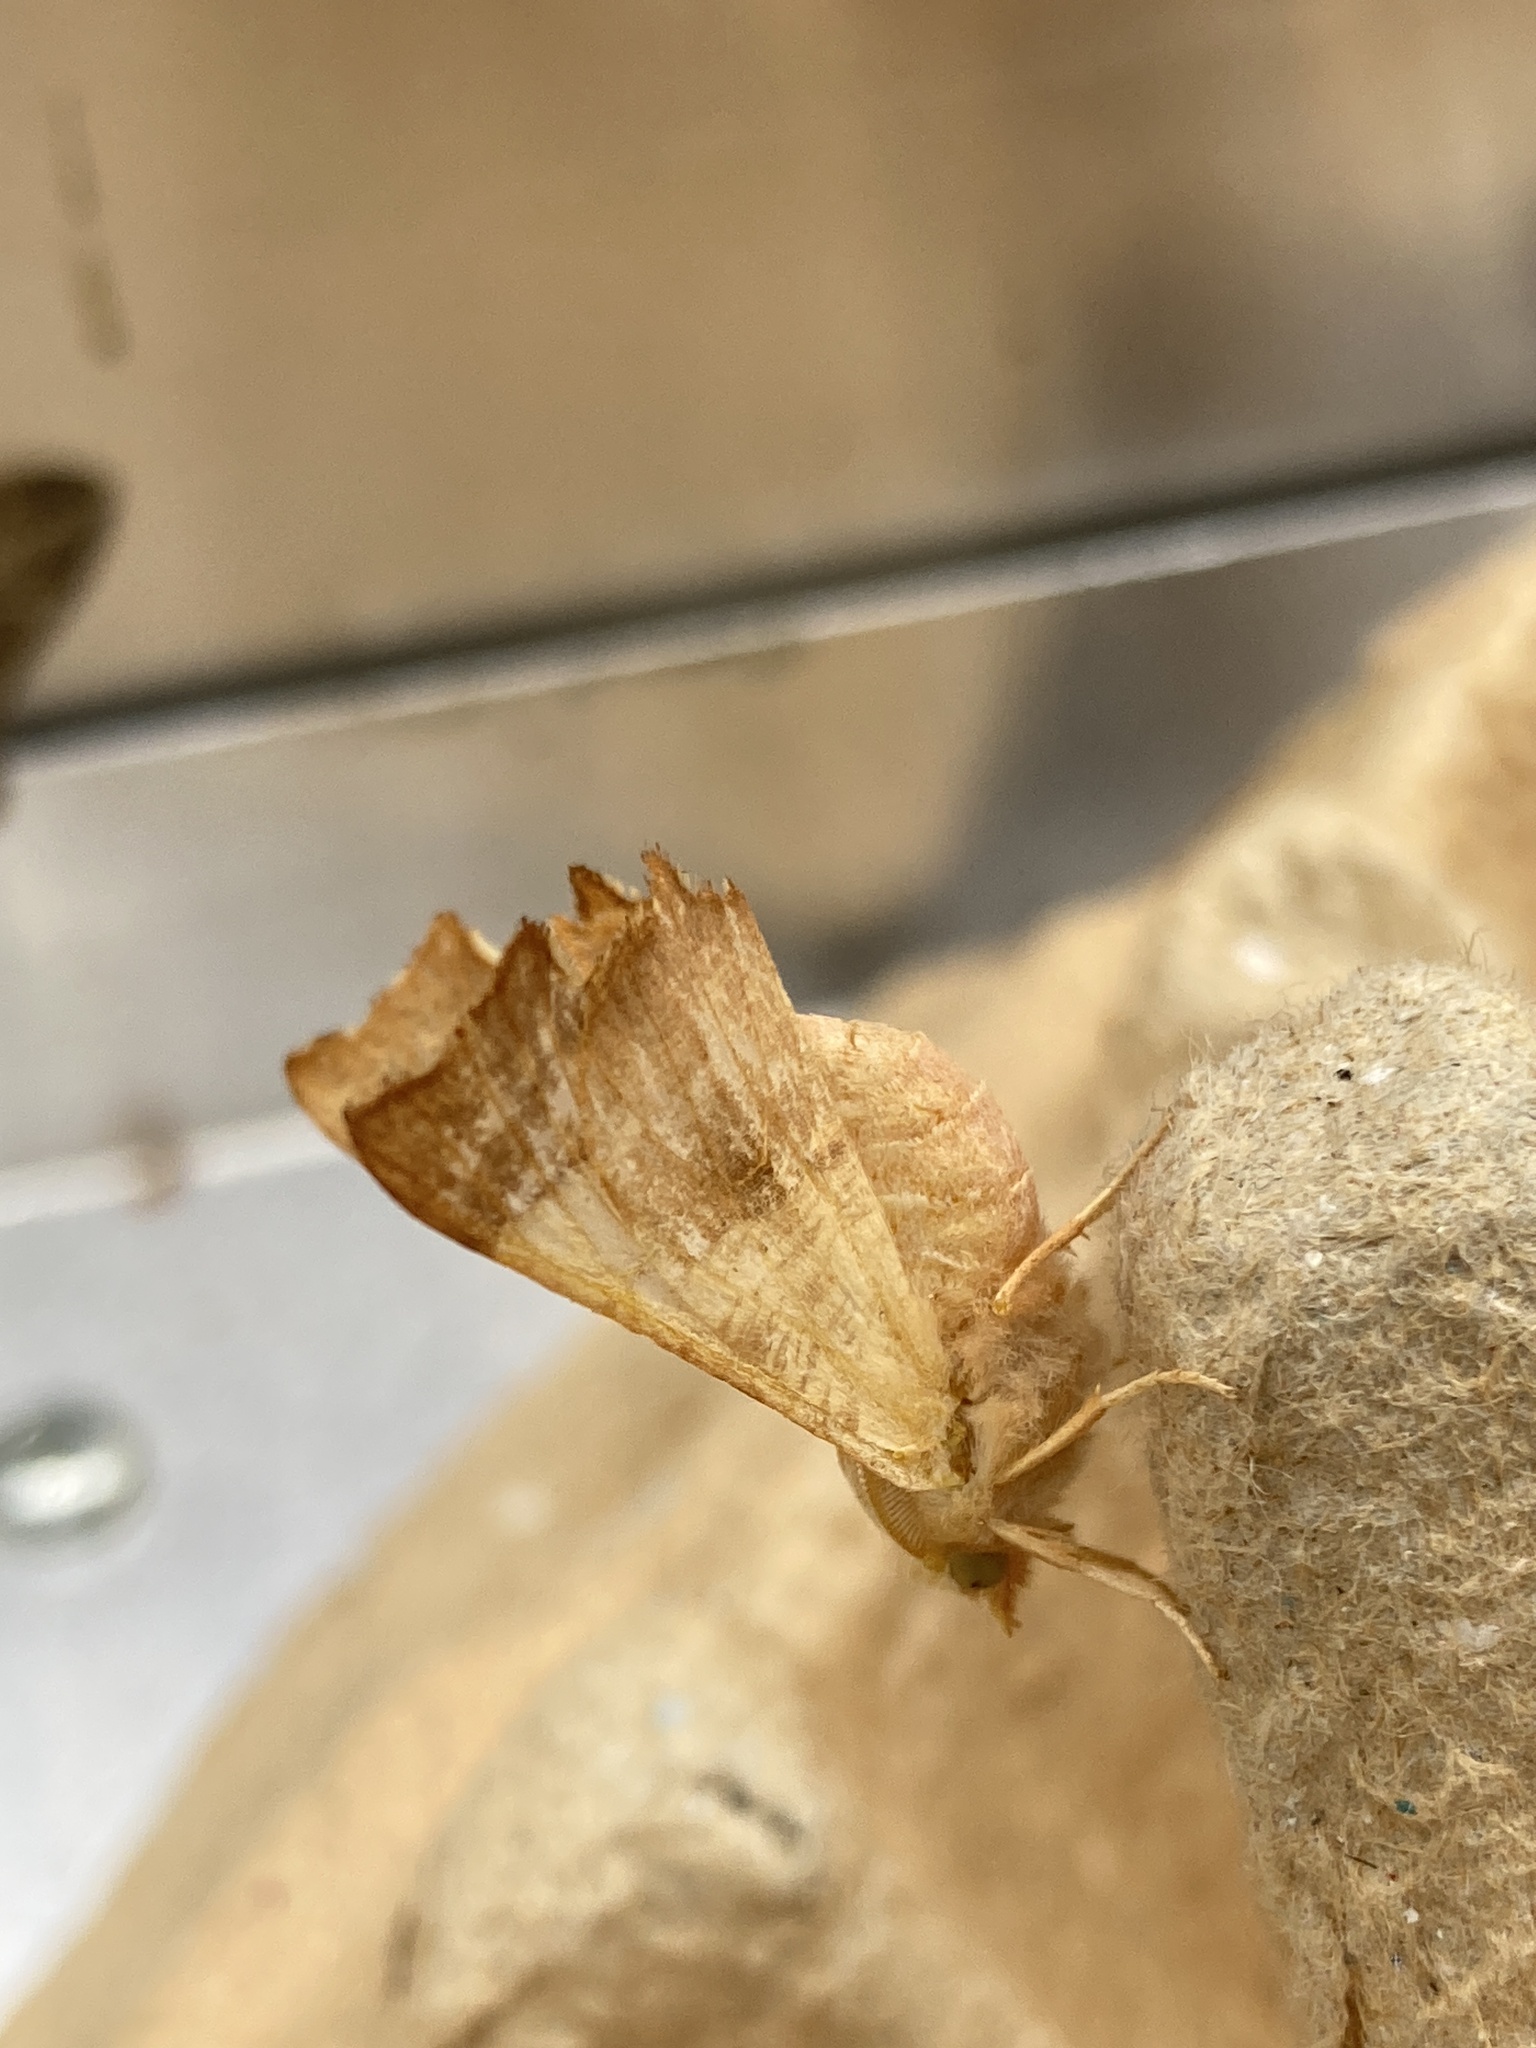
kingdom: Animalia
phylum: Arthropoda
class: Insecta
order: Lepidoptera
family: Geometridae
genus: Ennomos
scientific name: Ennomos fuscantaria
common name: Dusky thorn
